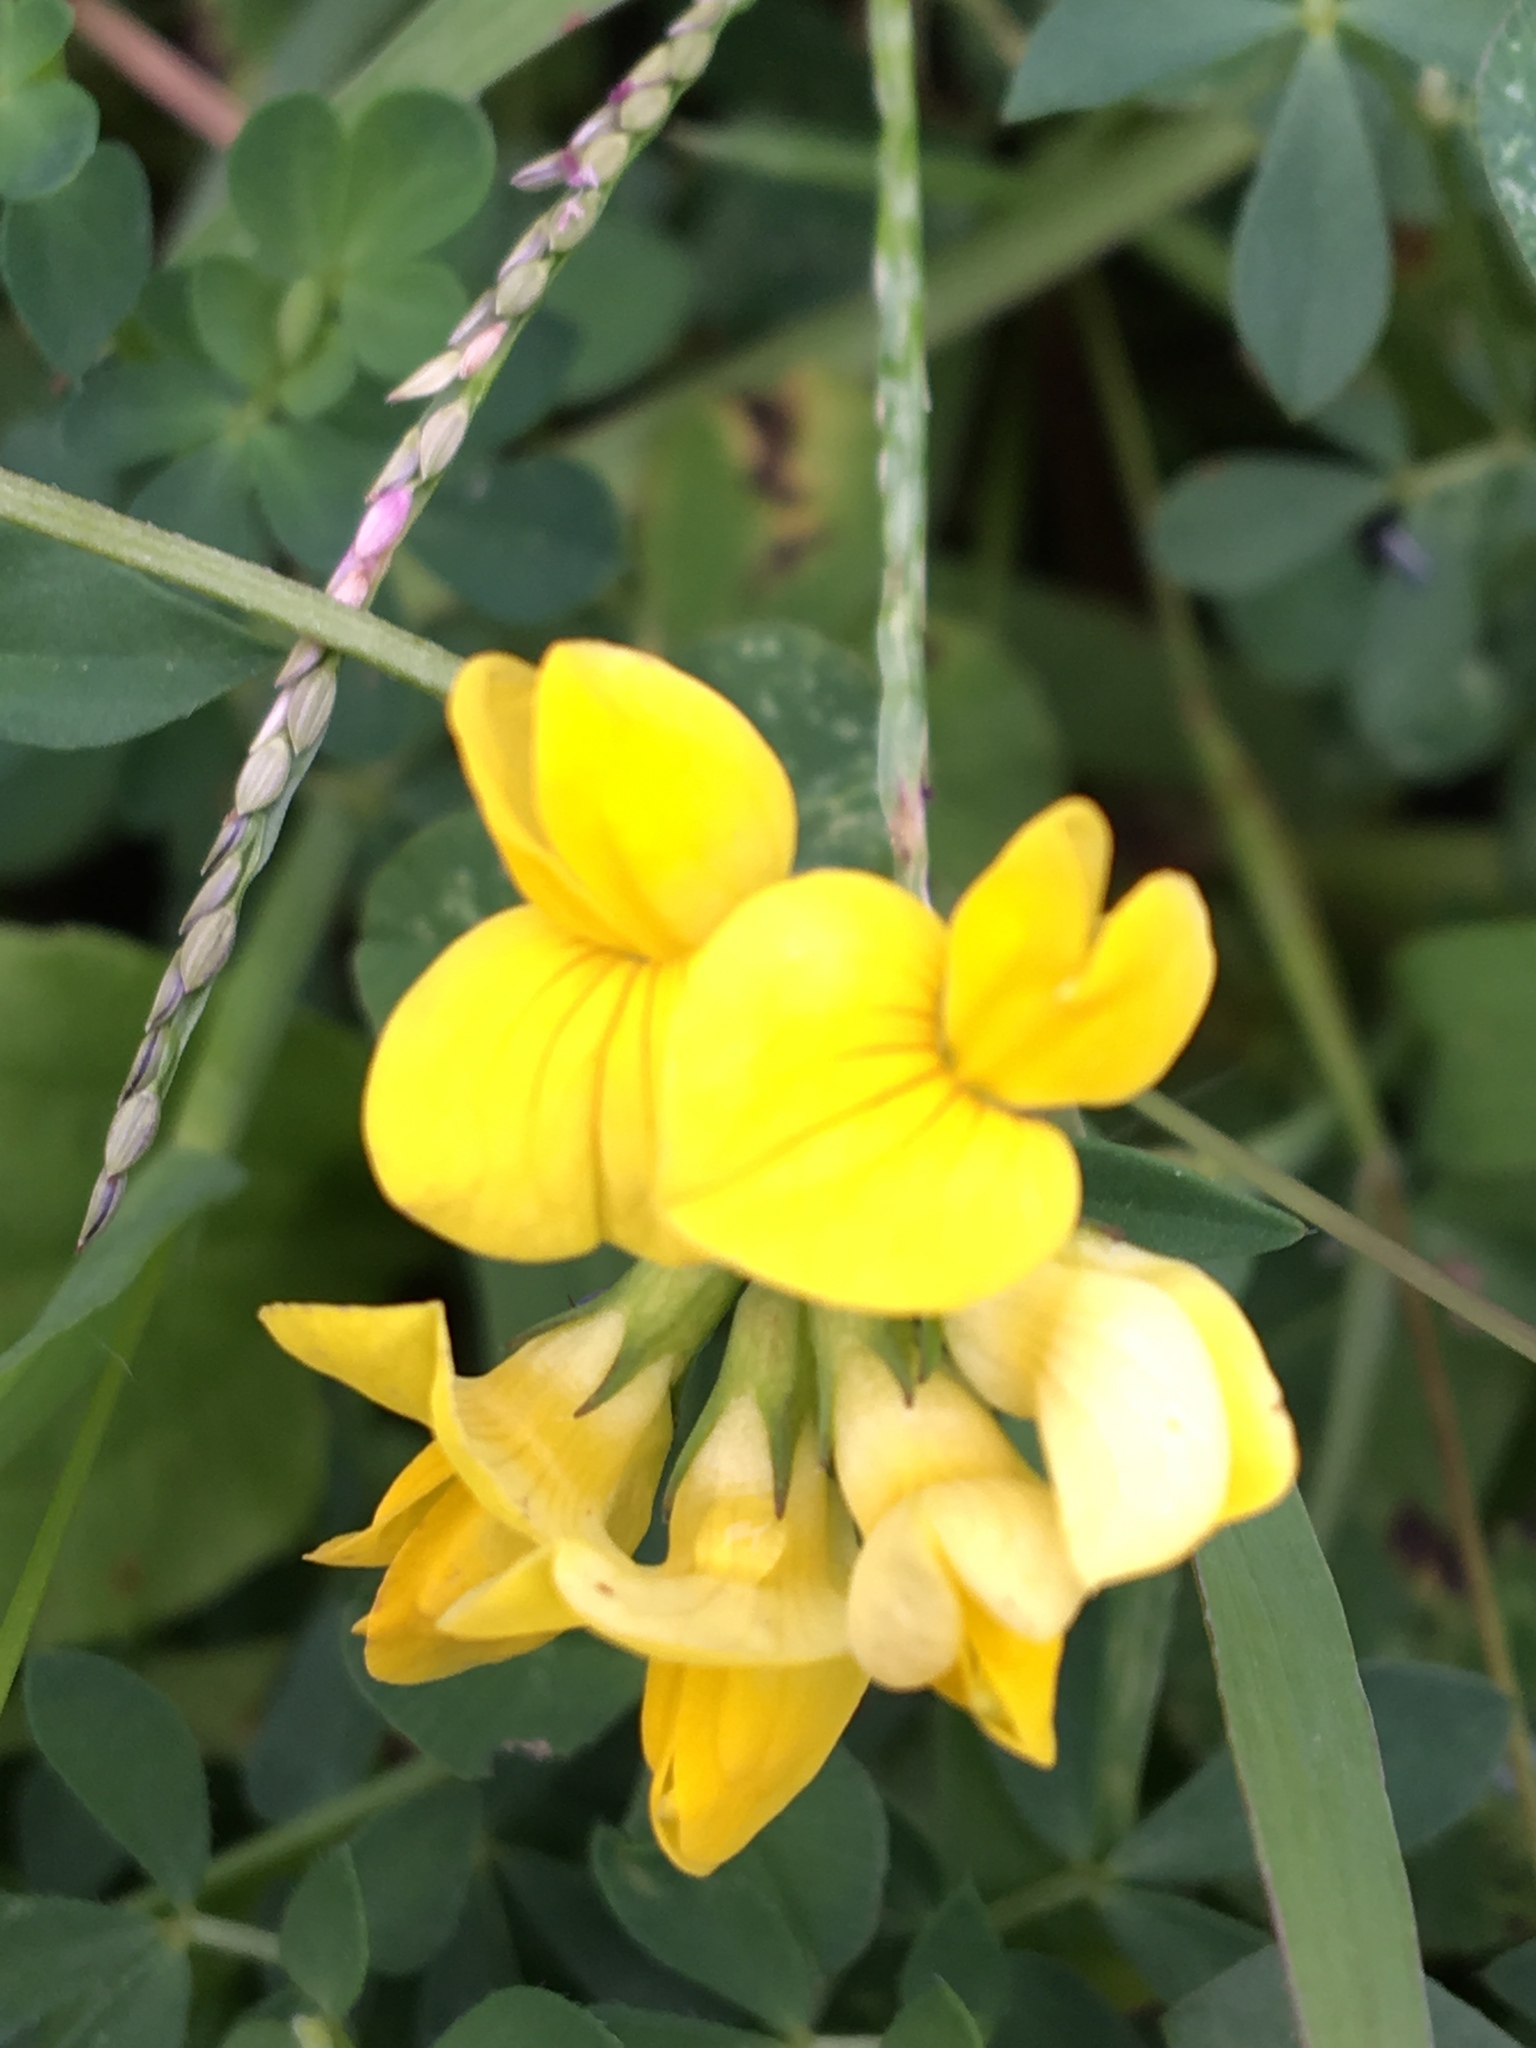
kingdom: Plantae
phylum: Tracheophyta
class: Magnoliopsida
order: Fabales
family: Fabaceae
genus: Lotus
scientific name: Lotus corniculatus
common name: Common bird's-foot-trefoil
